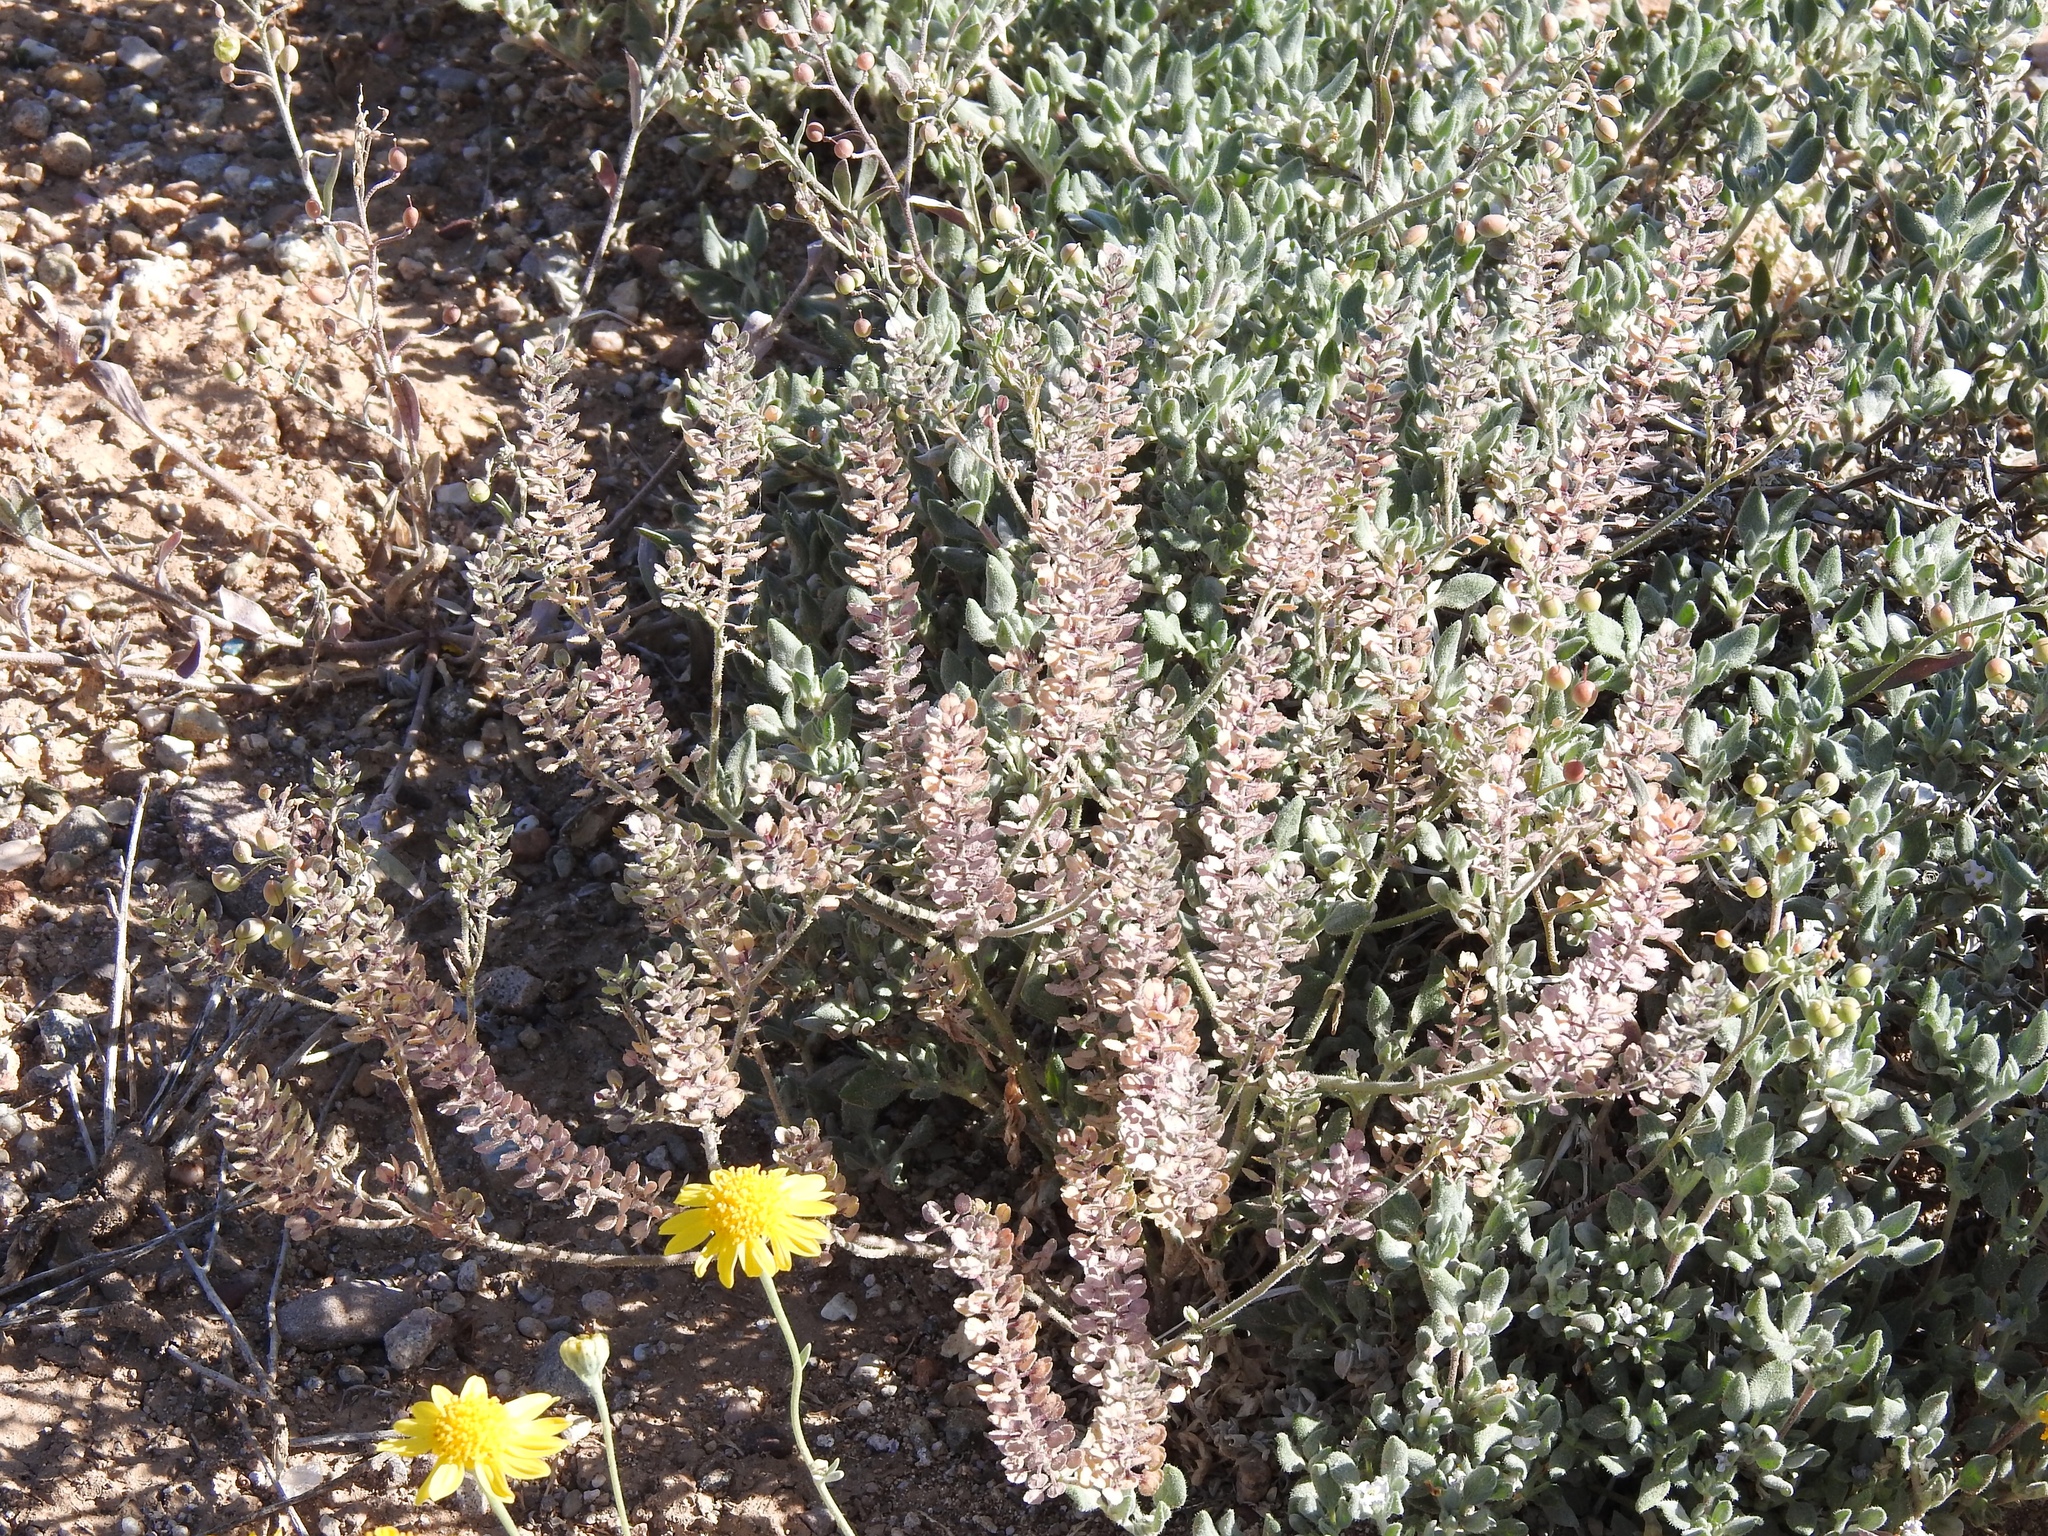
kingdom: Plantae
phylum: Tracheophyta
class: Magnoliopsida
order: Brassicales
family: Brassicaceae
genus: Lepidium
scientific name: Lepidium lasiocarpum
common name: Hairy-pod pepperwort
